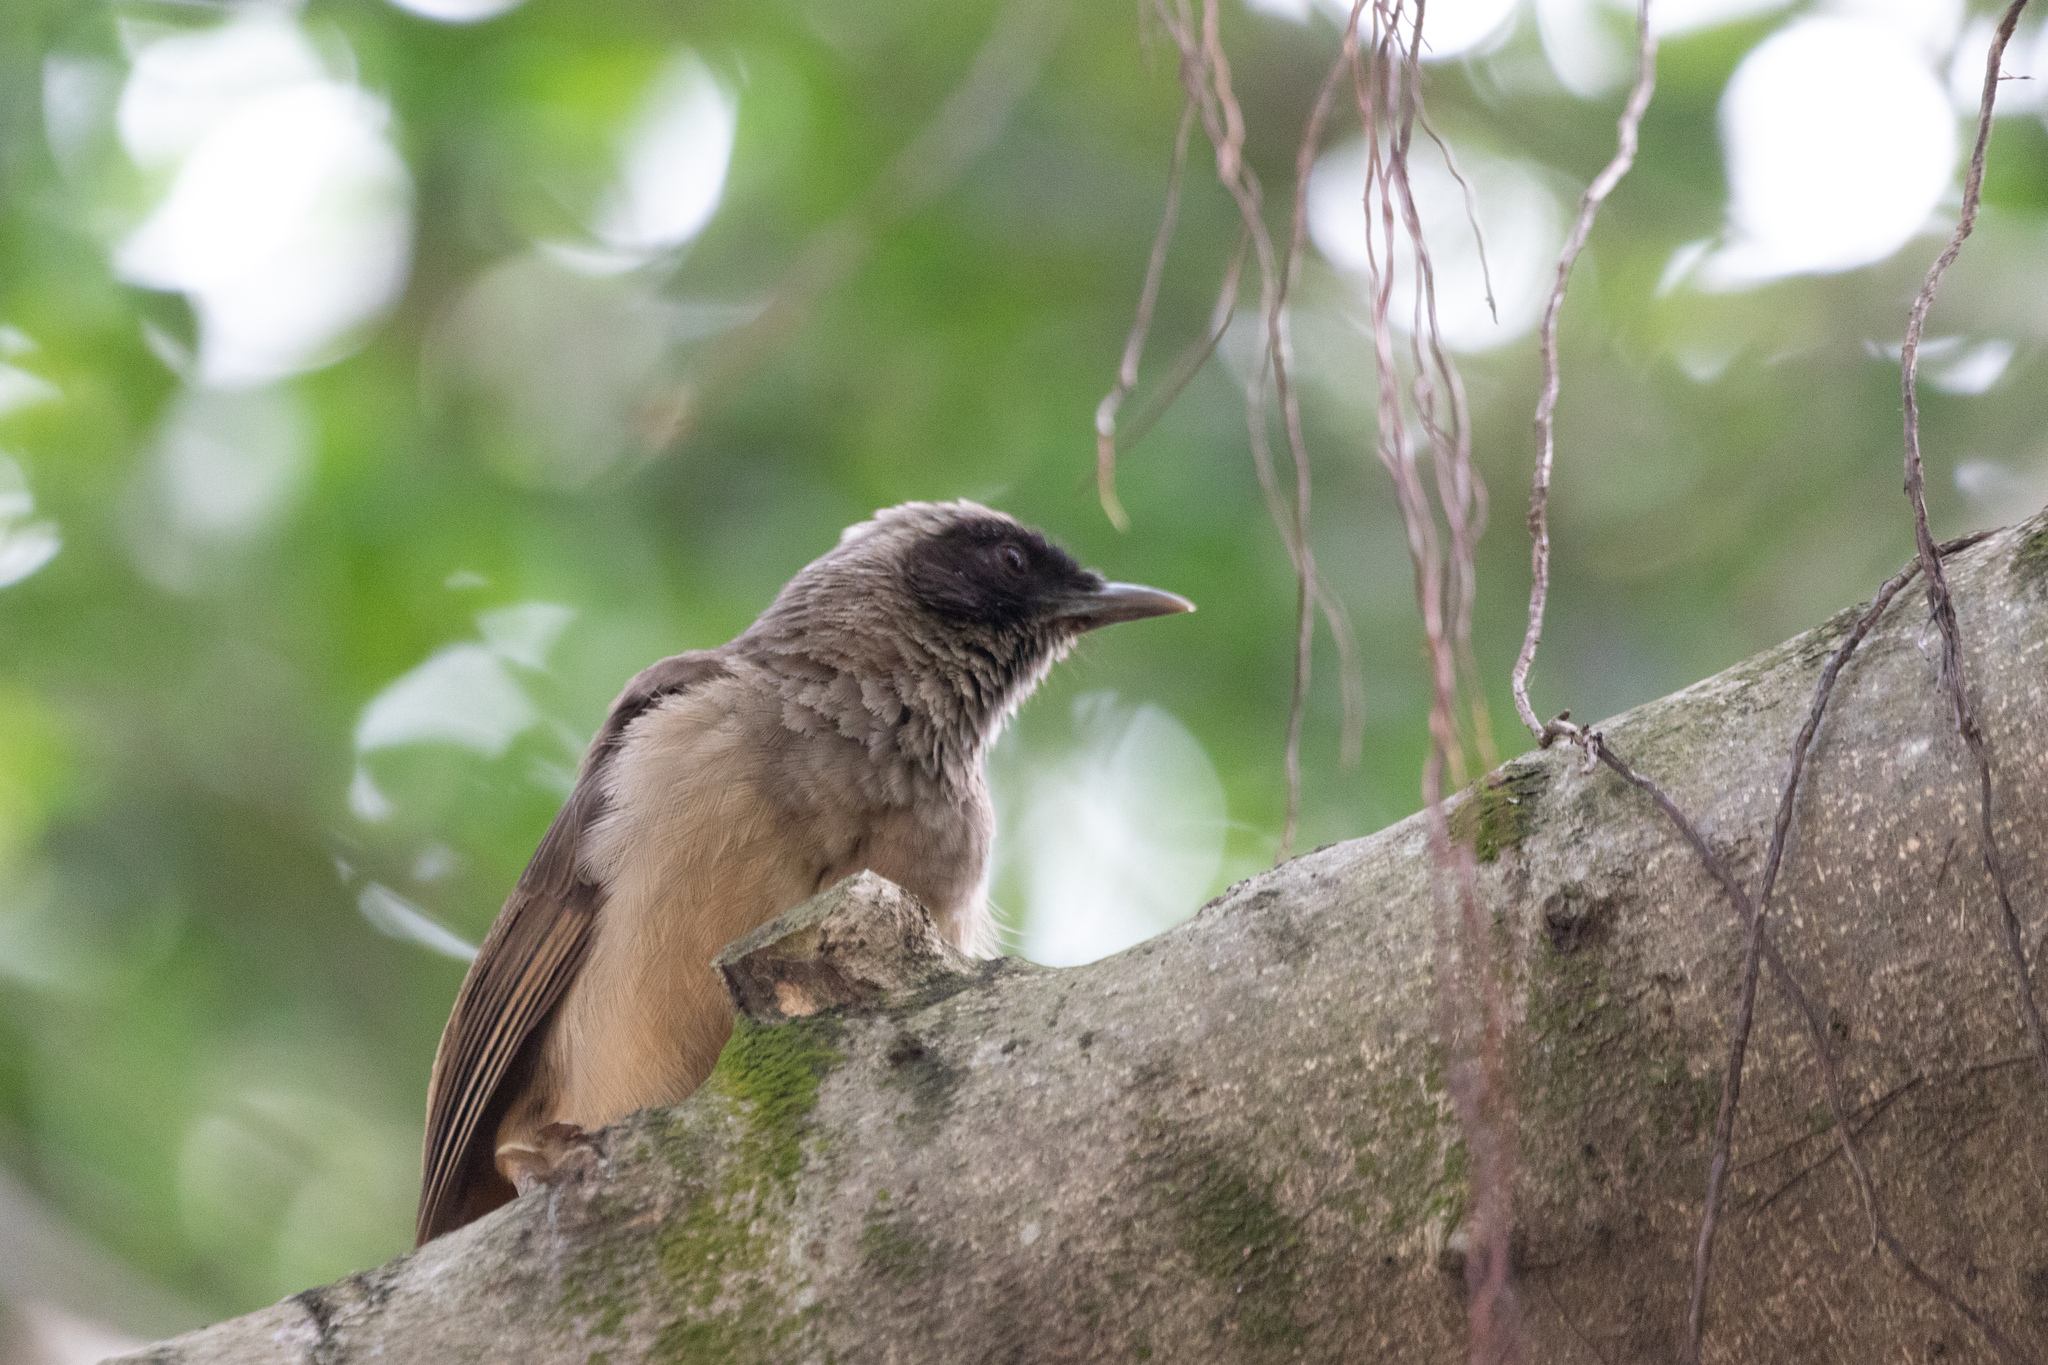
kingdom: Animalia
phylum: Chordata
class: Aves
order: Passeriformes
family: Leiothrichidae
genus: Garrulax
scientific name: Garrulax perspicillatus
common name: Masked laughingthrush
